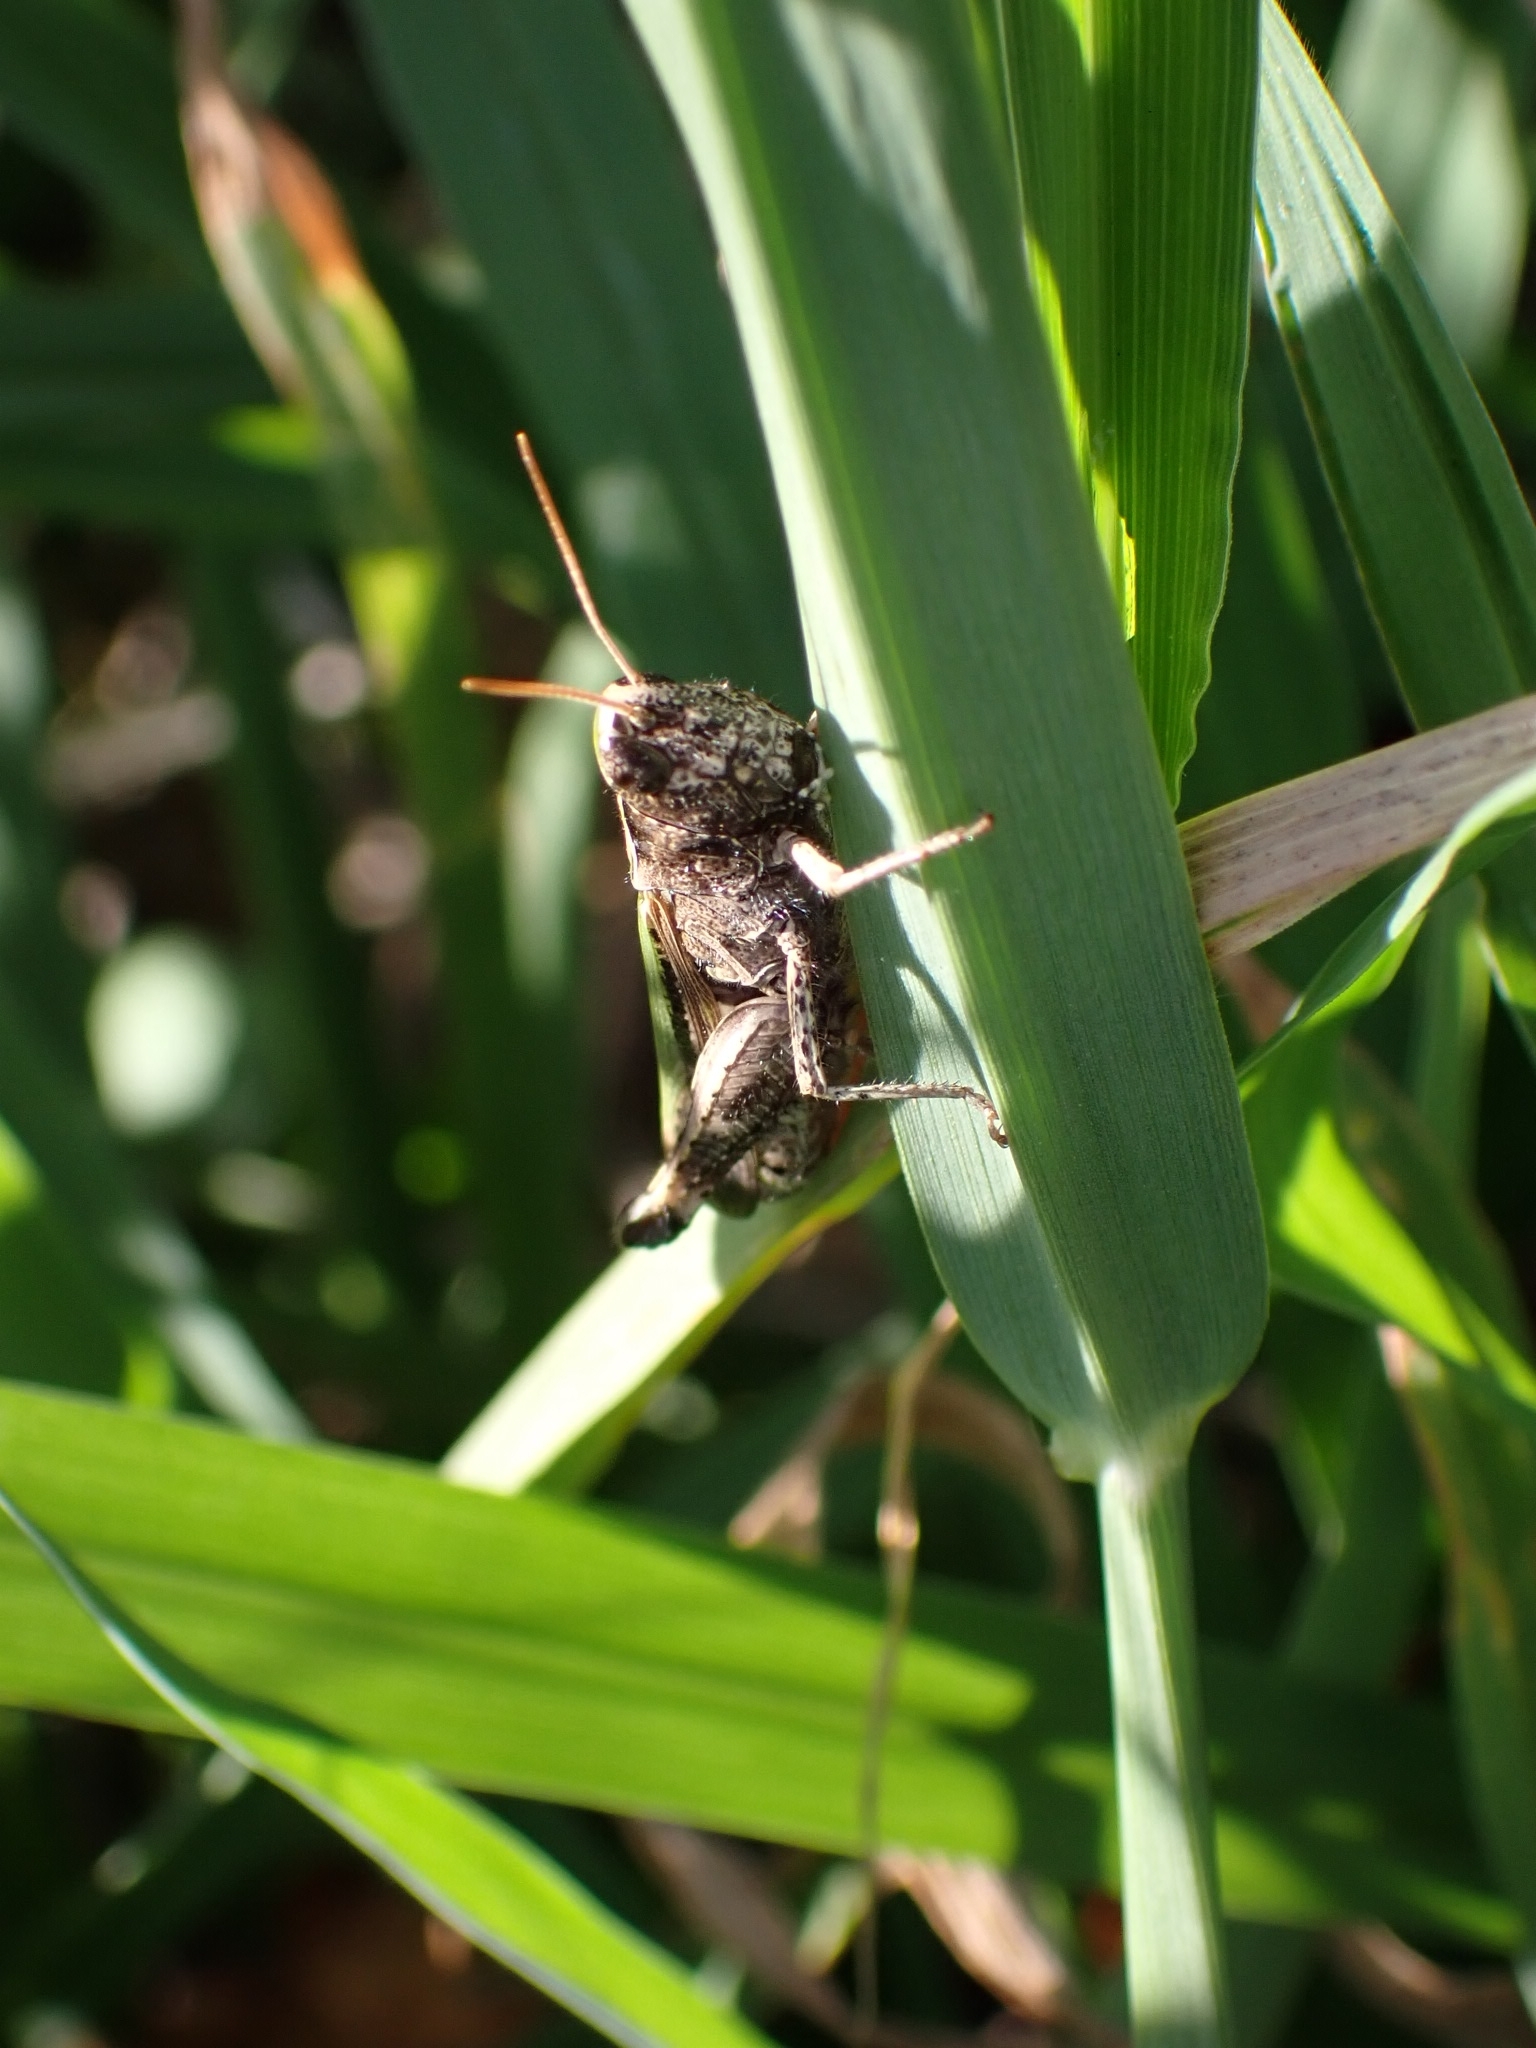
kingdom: Animalia
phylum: Arthropoda
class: Insecta
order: Orthoptera
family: Acrididae
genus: Omocestus
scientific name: Omocestus rufipes
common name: Woodland grasshopper
